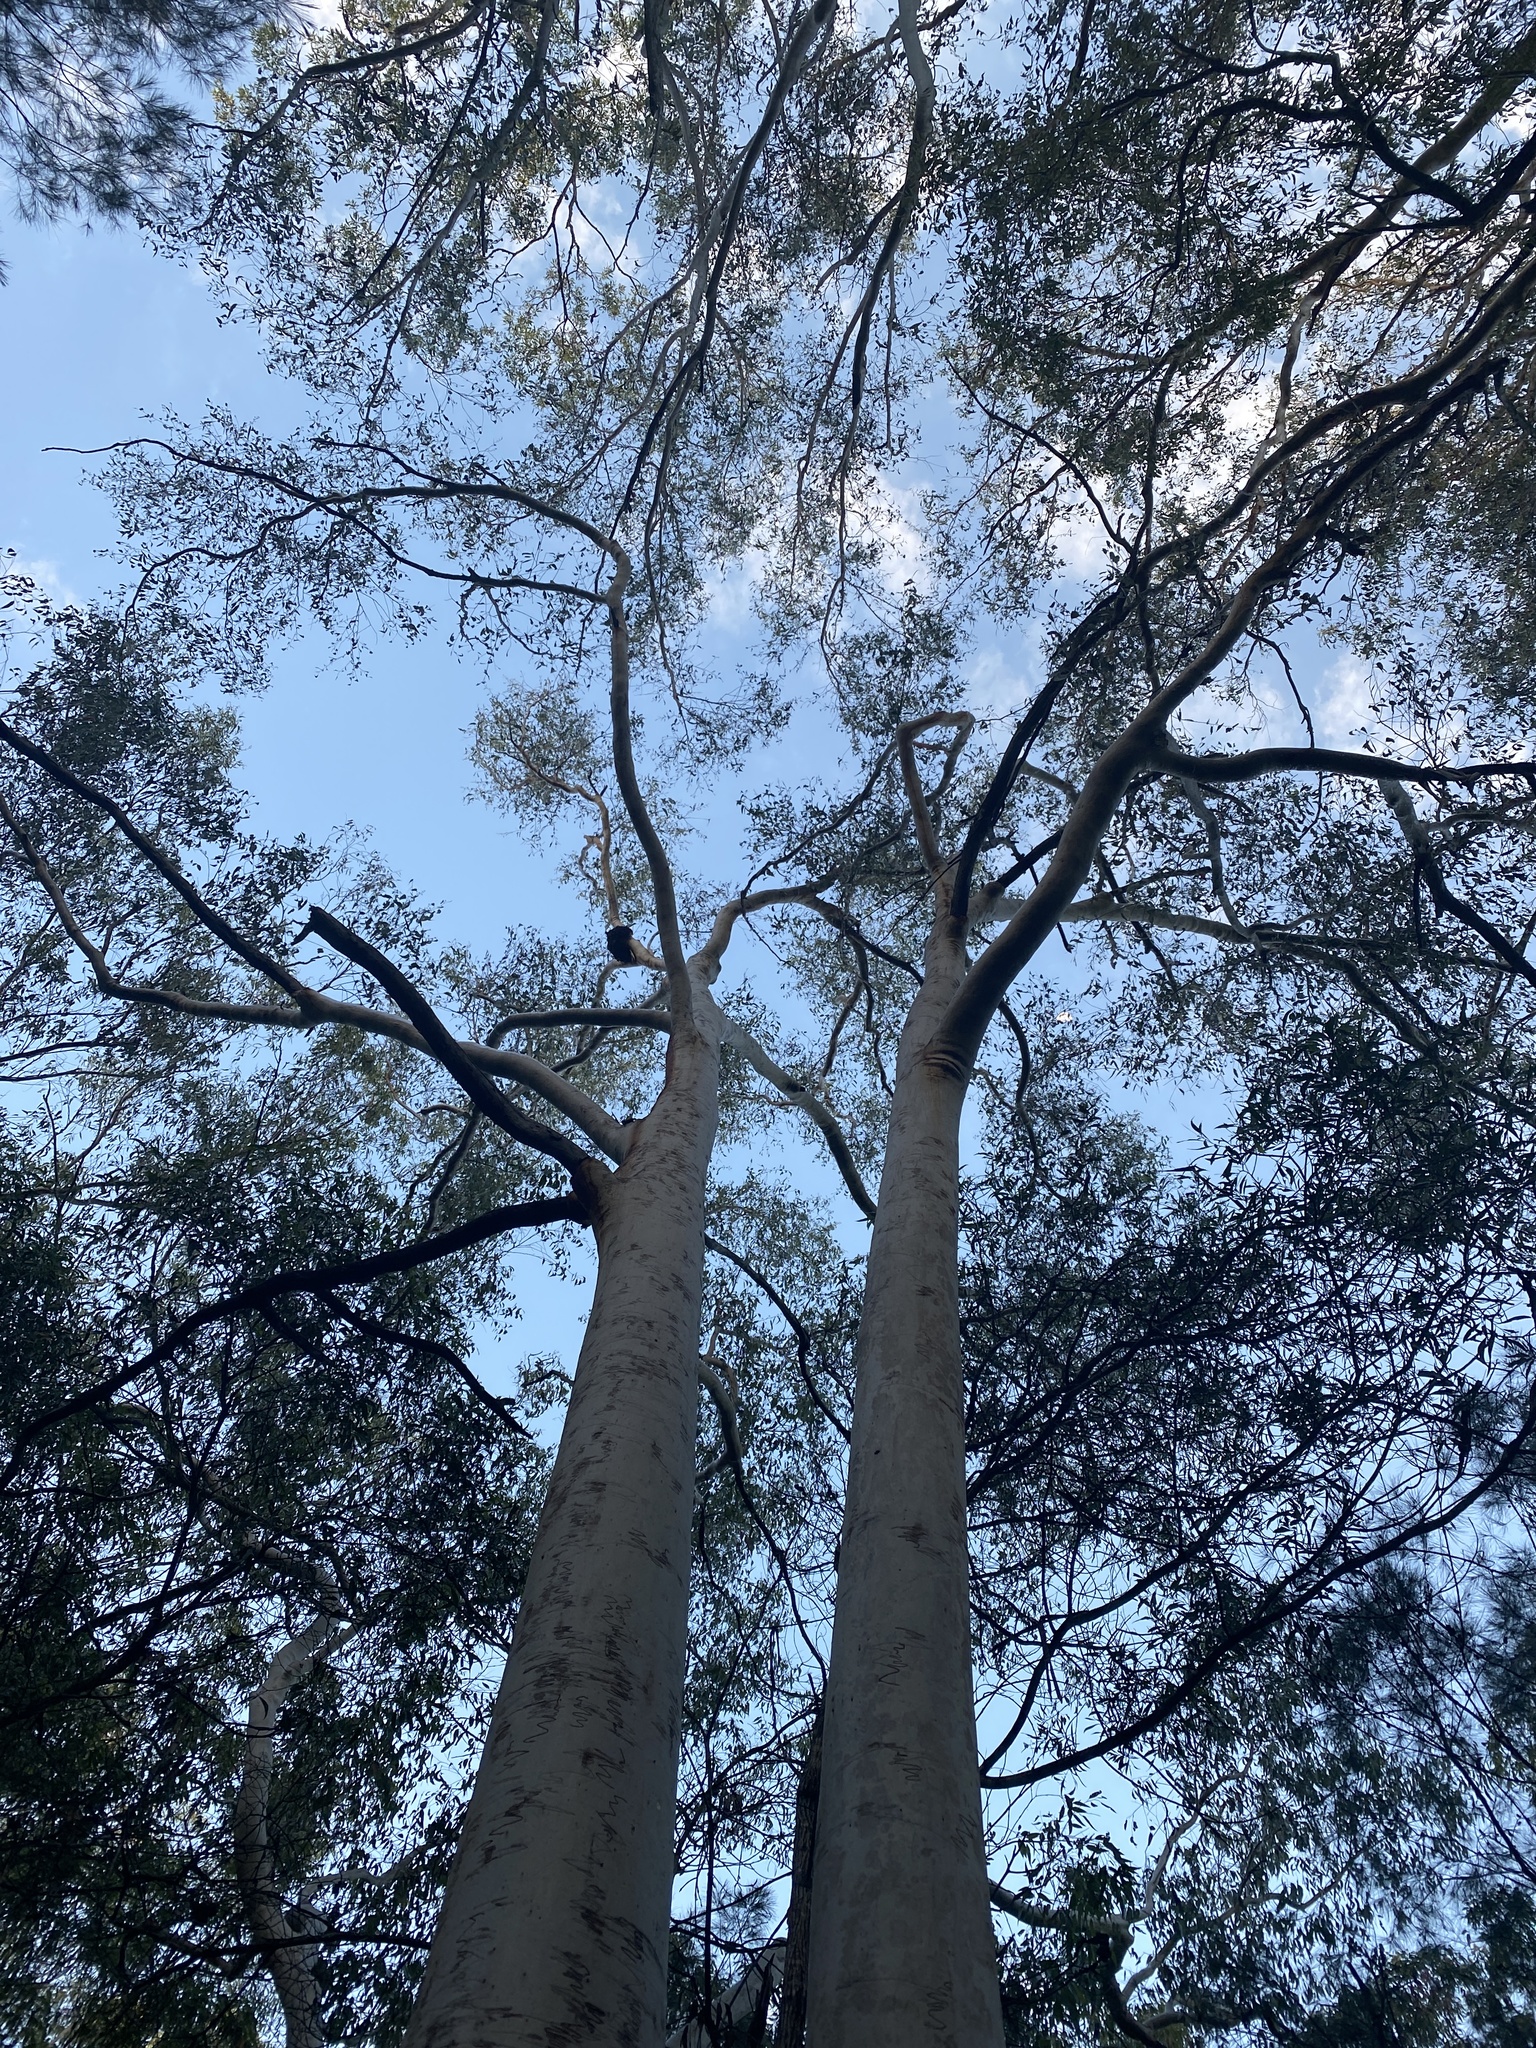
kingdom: Plantae
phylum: Tracheophyta
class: Magnoliopsida
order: Myrtales
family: Myrtaceae
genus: Eucalyptus
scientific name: Eucalyptus racemosa
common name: Scribbly gum
